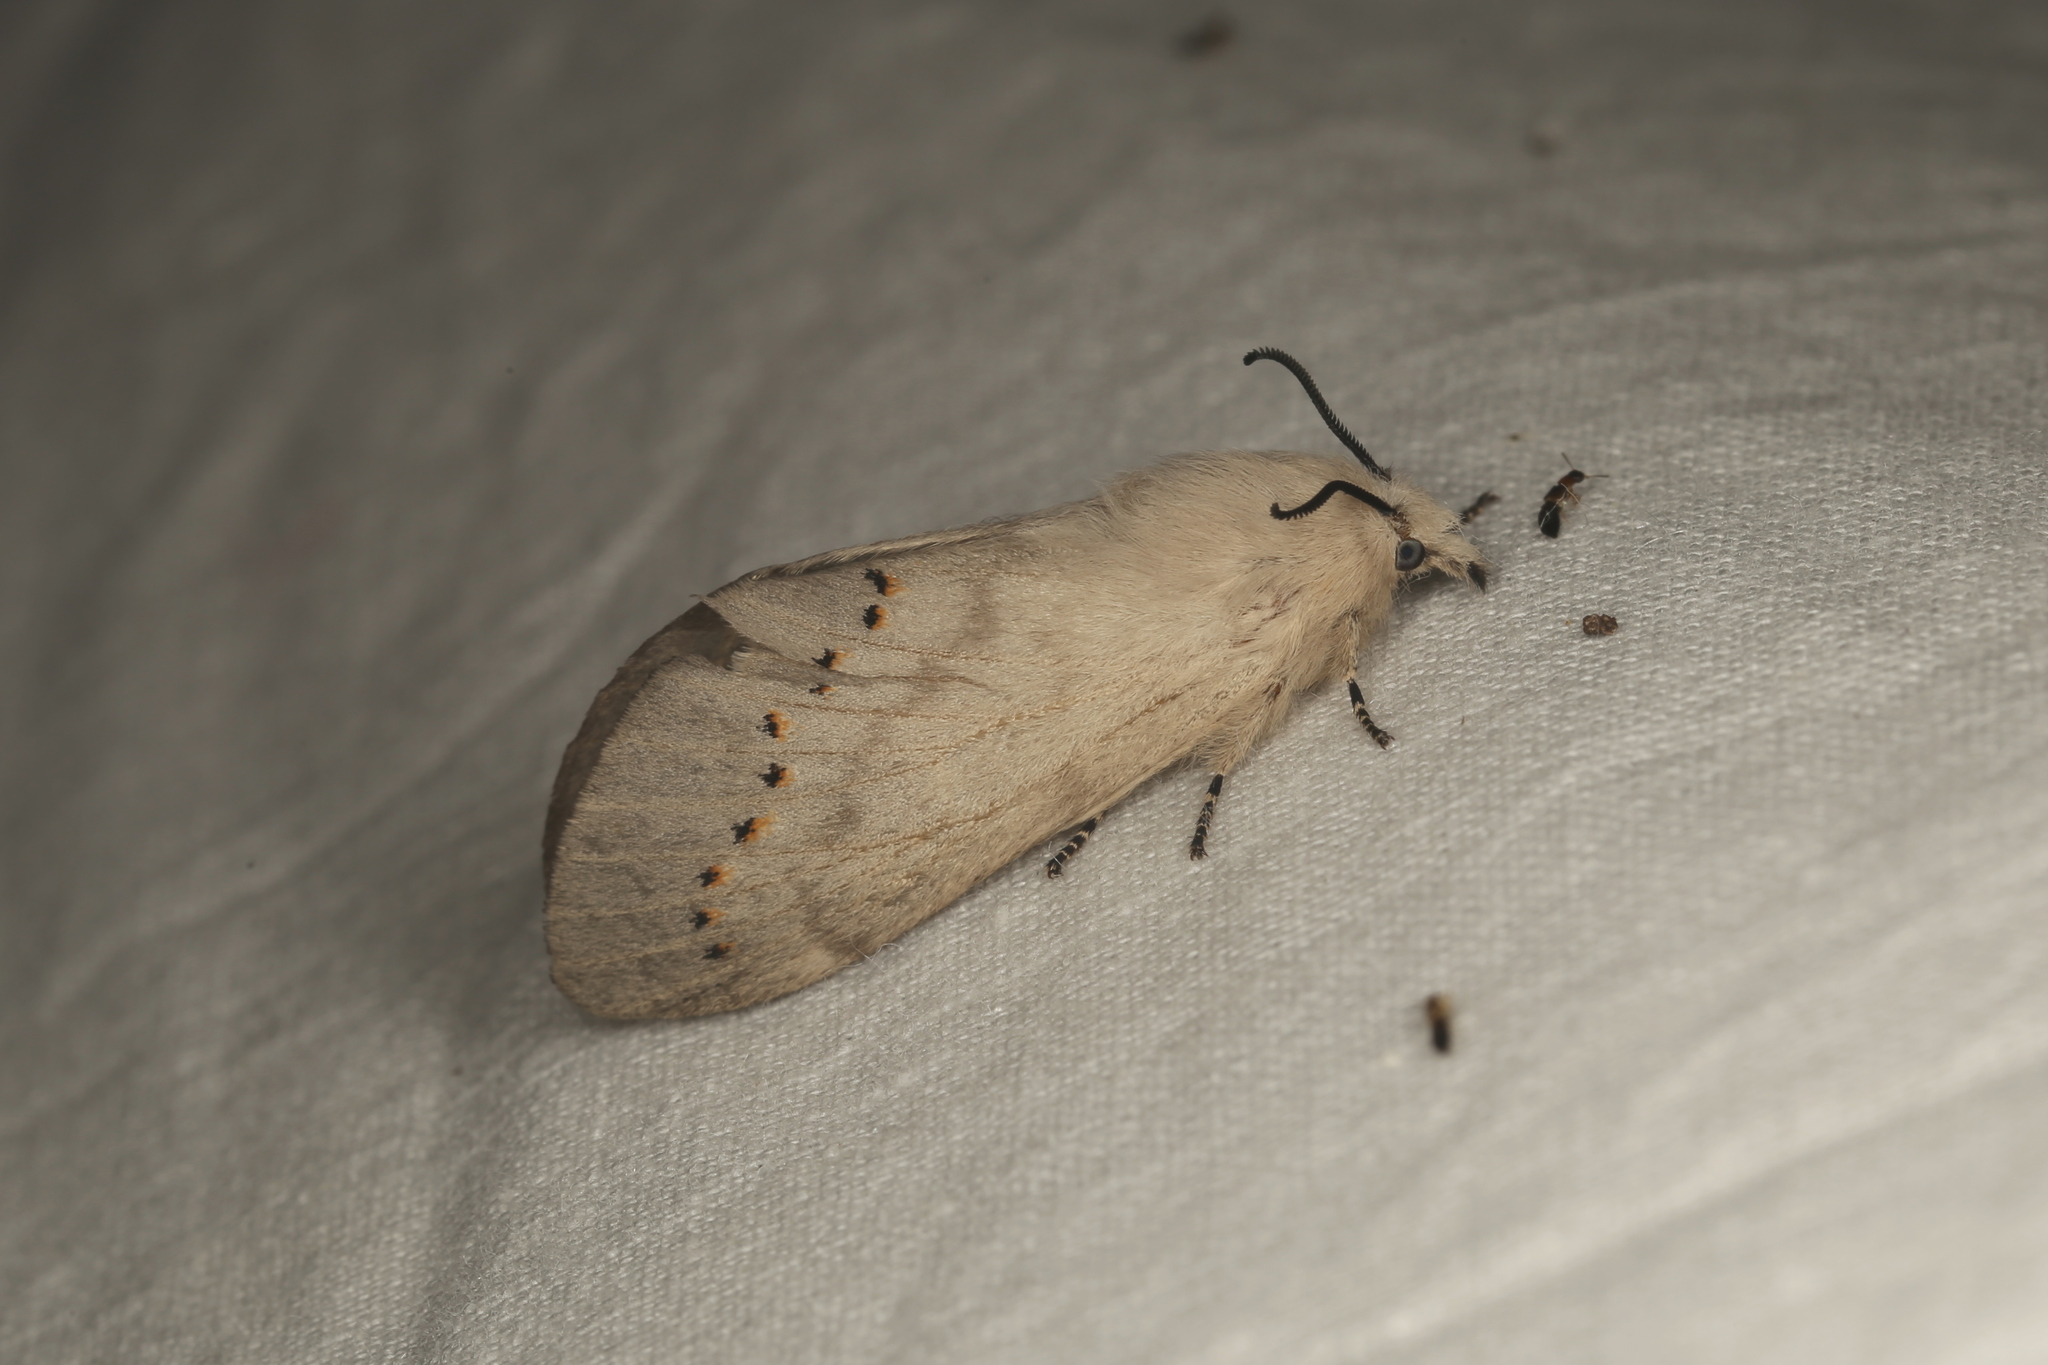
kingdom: Animalia
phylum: Arthropoda
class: Insecta
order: Lepidoptera
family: Lasiocampidae
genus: Pinara
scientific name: Pinara divisa
